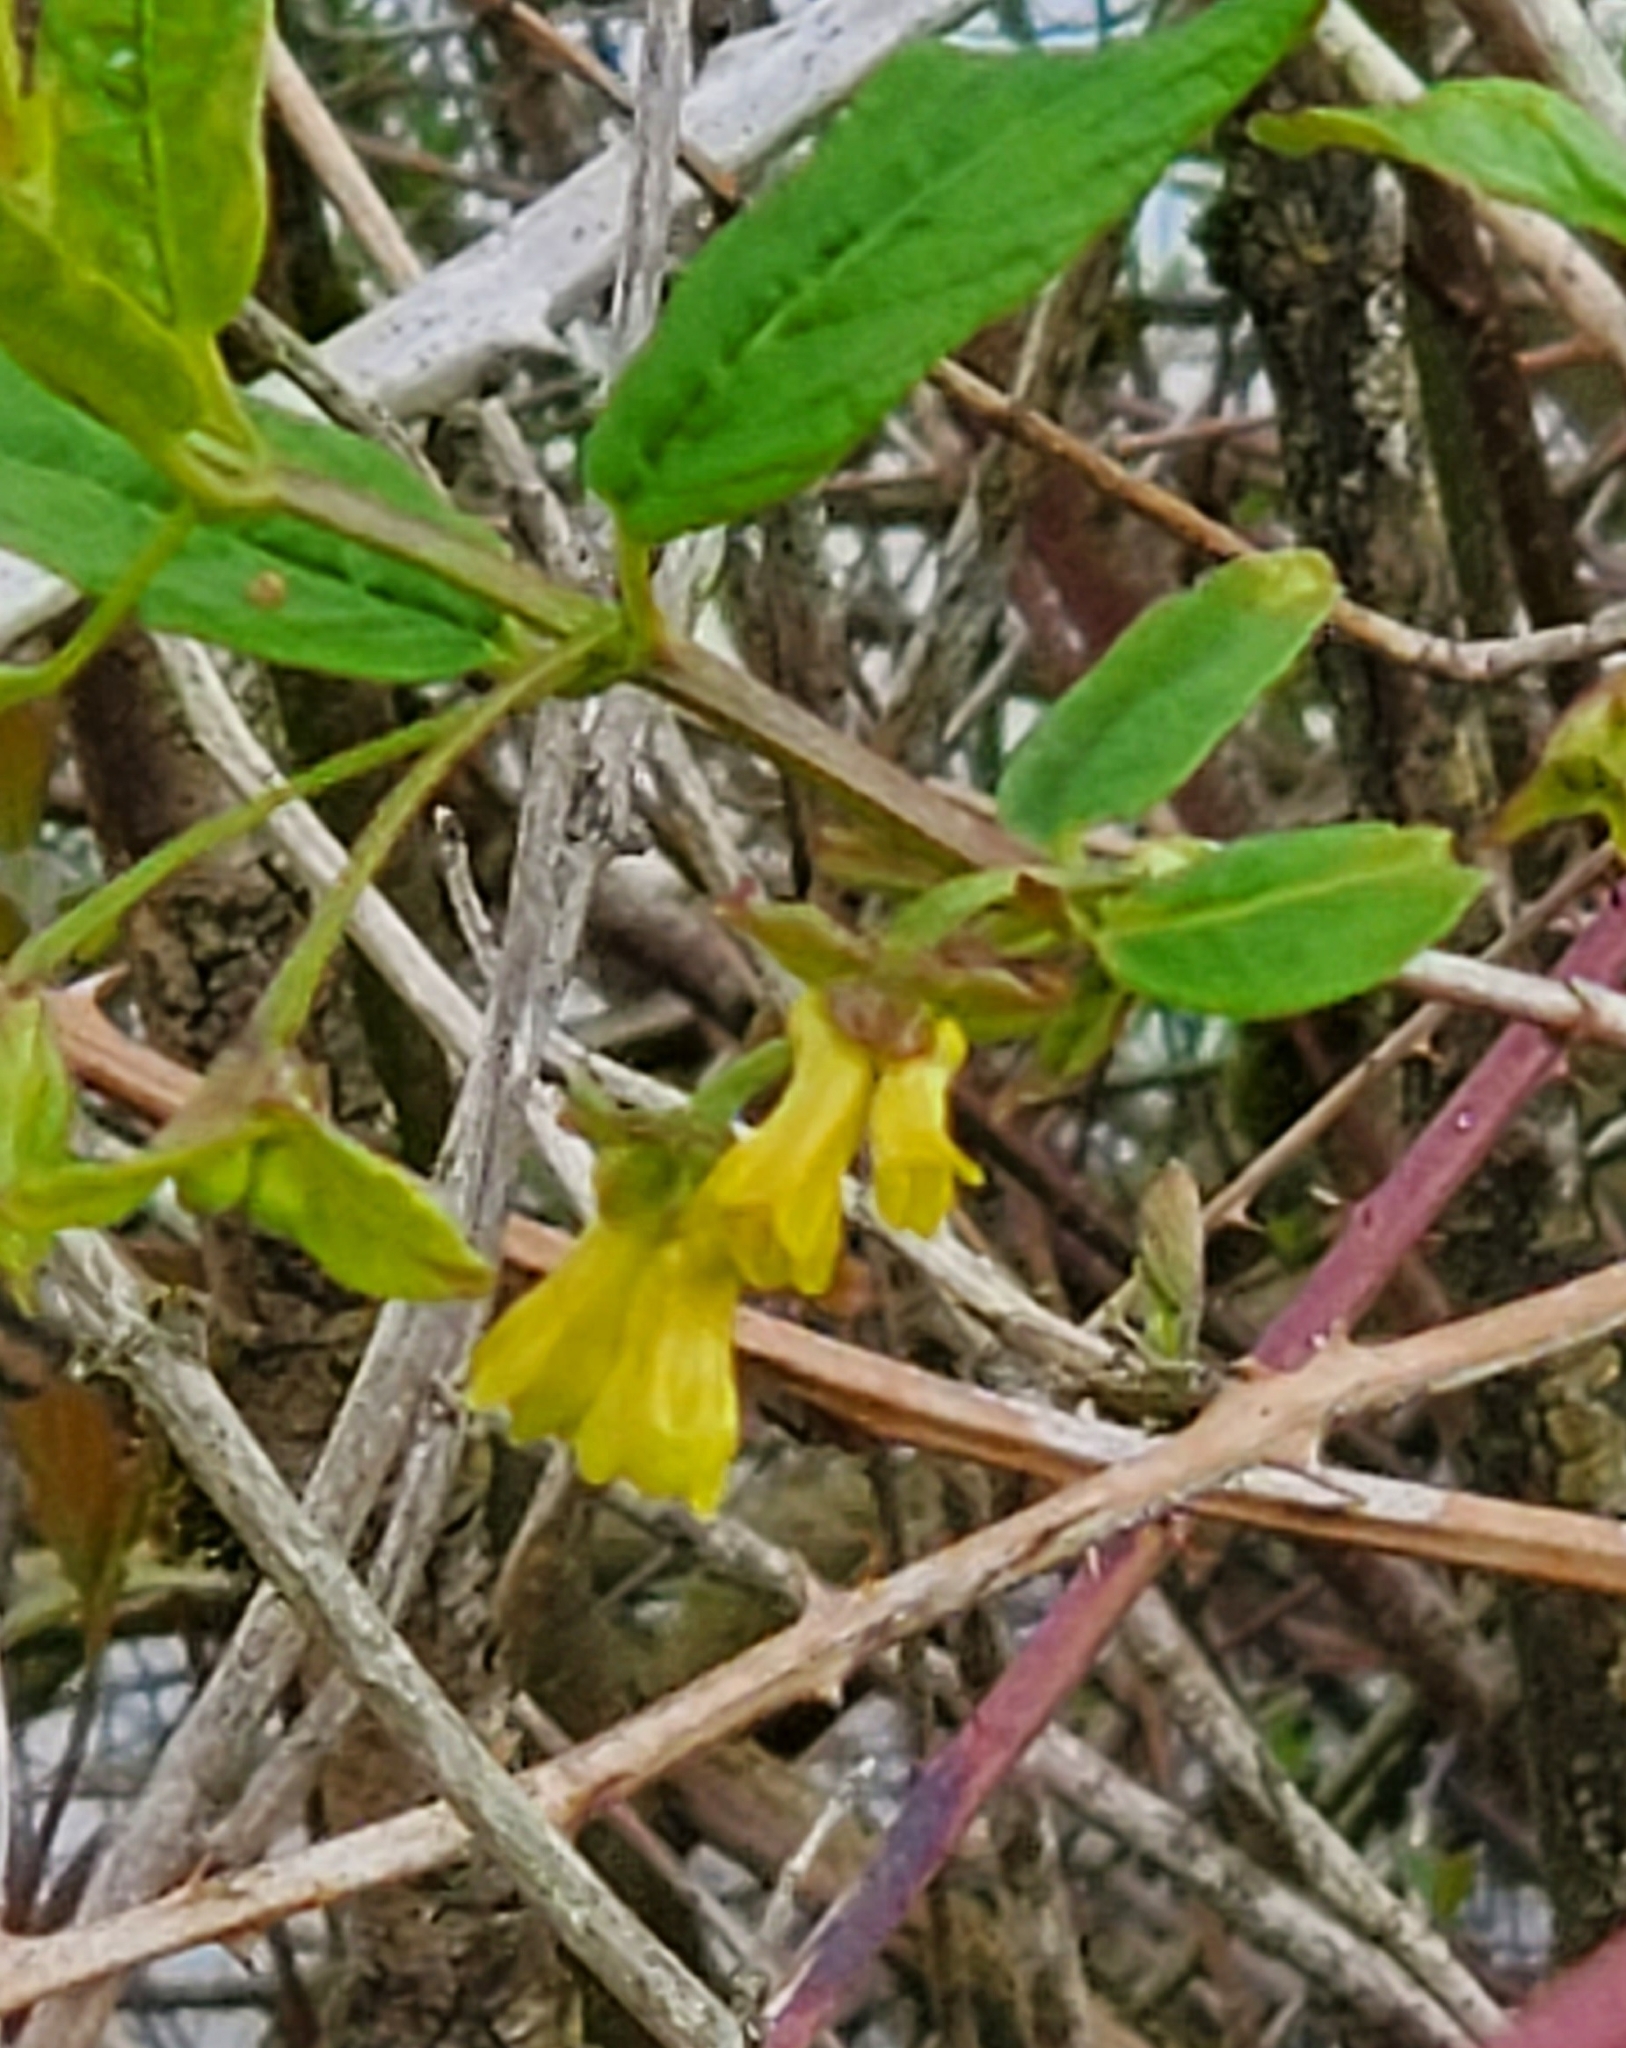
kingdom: Plantae
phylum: Tracheophyta
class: Magnoliopsida
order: Dipsacales
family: Caprifoliaceae
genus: Lonicera
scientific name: Lonicera involucrata
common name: Californian honeysuckle
